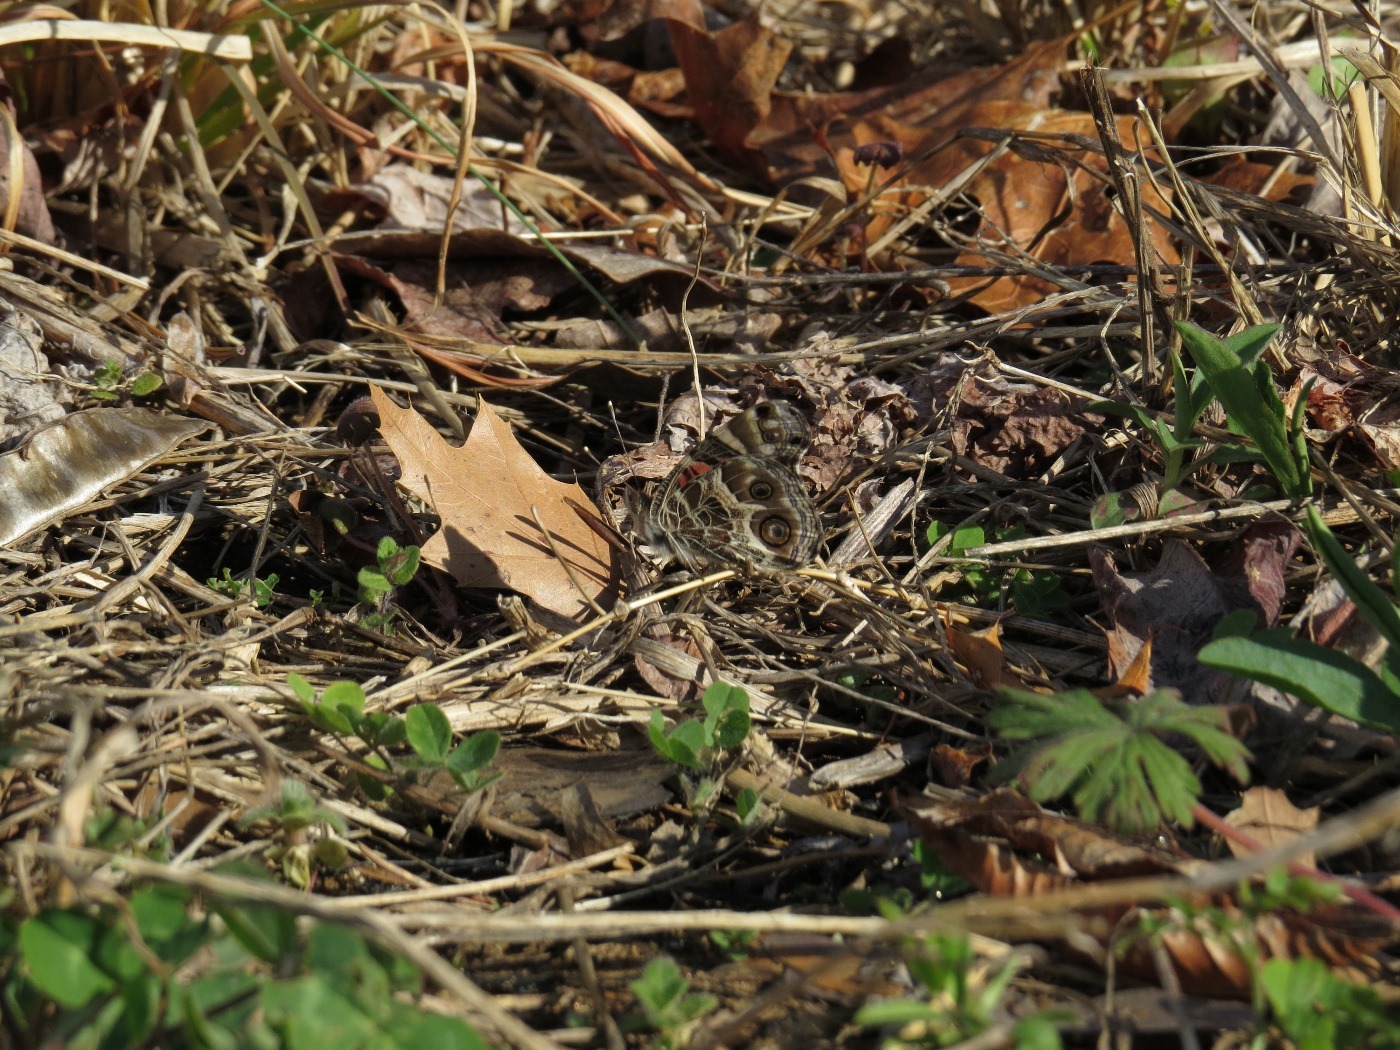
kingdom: Animalia
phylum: Arthropoda
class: Insecta
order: Lepidoptera
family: Nymphalidae
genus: Vanessa
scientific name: Vanessa virginiensis
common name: American lady
